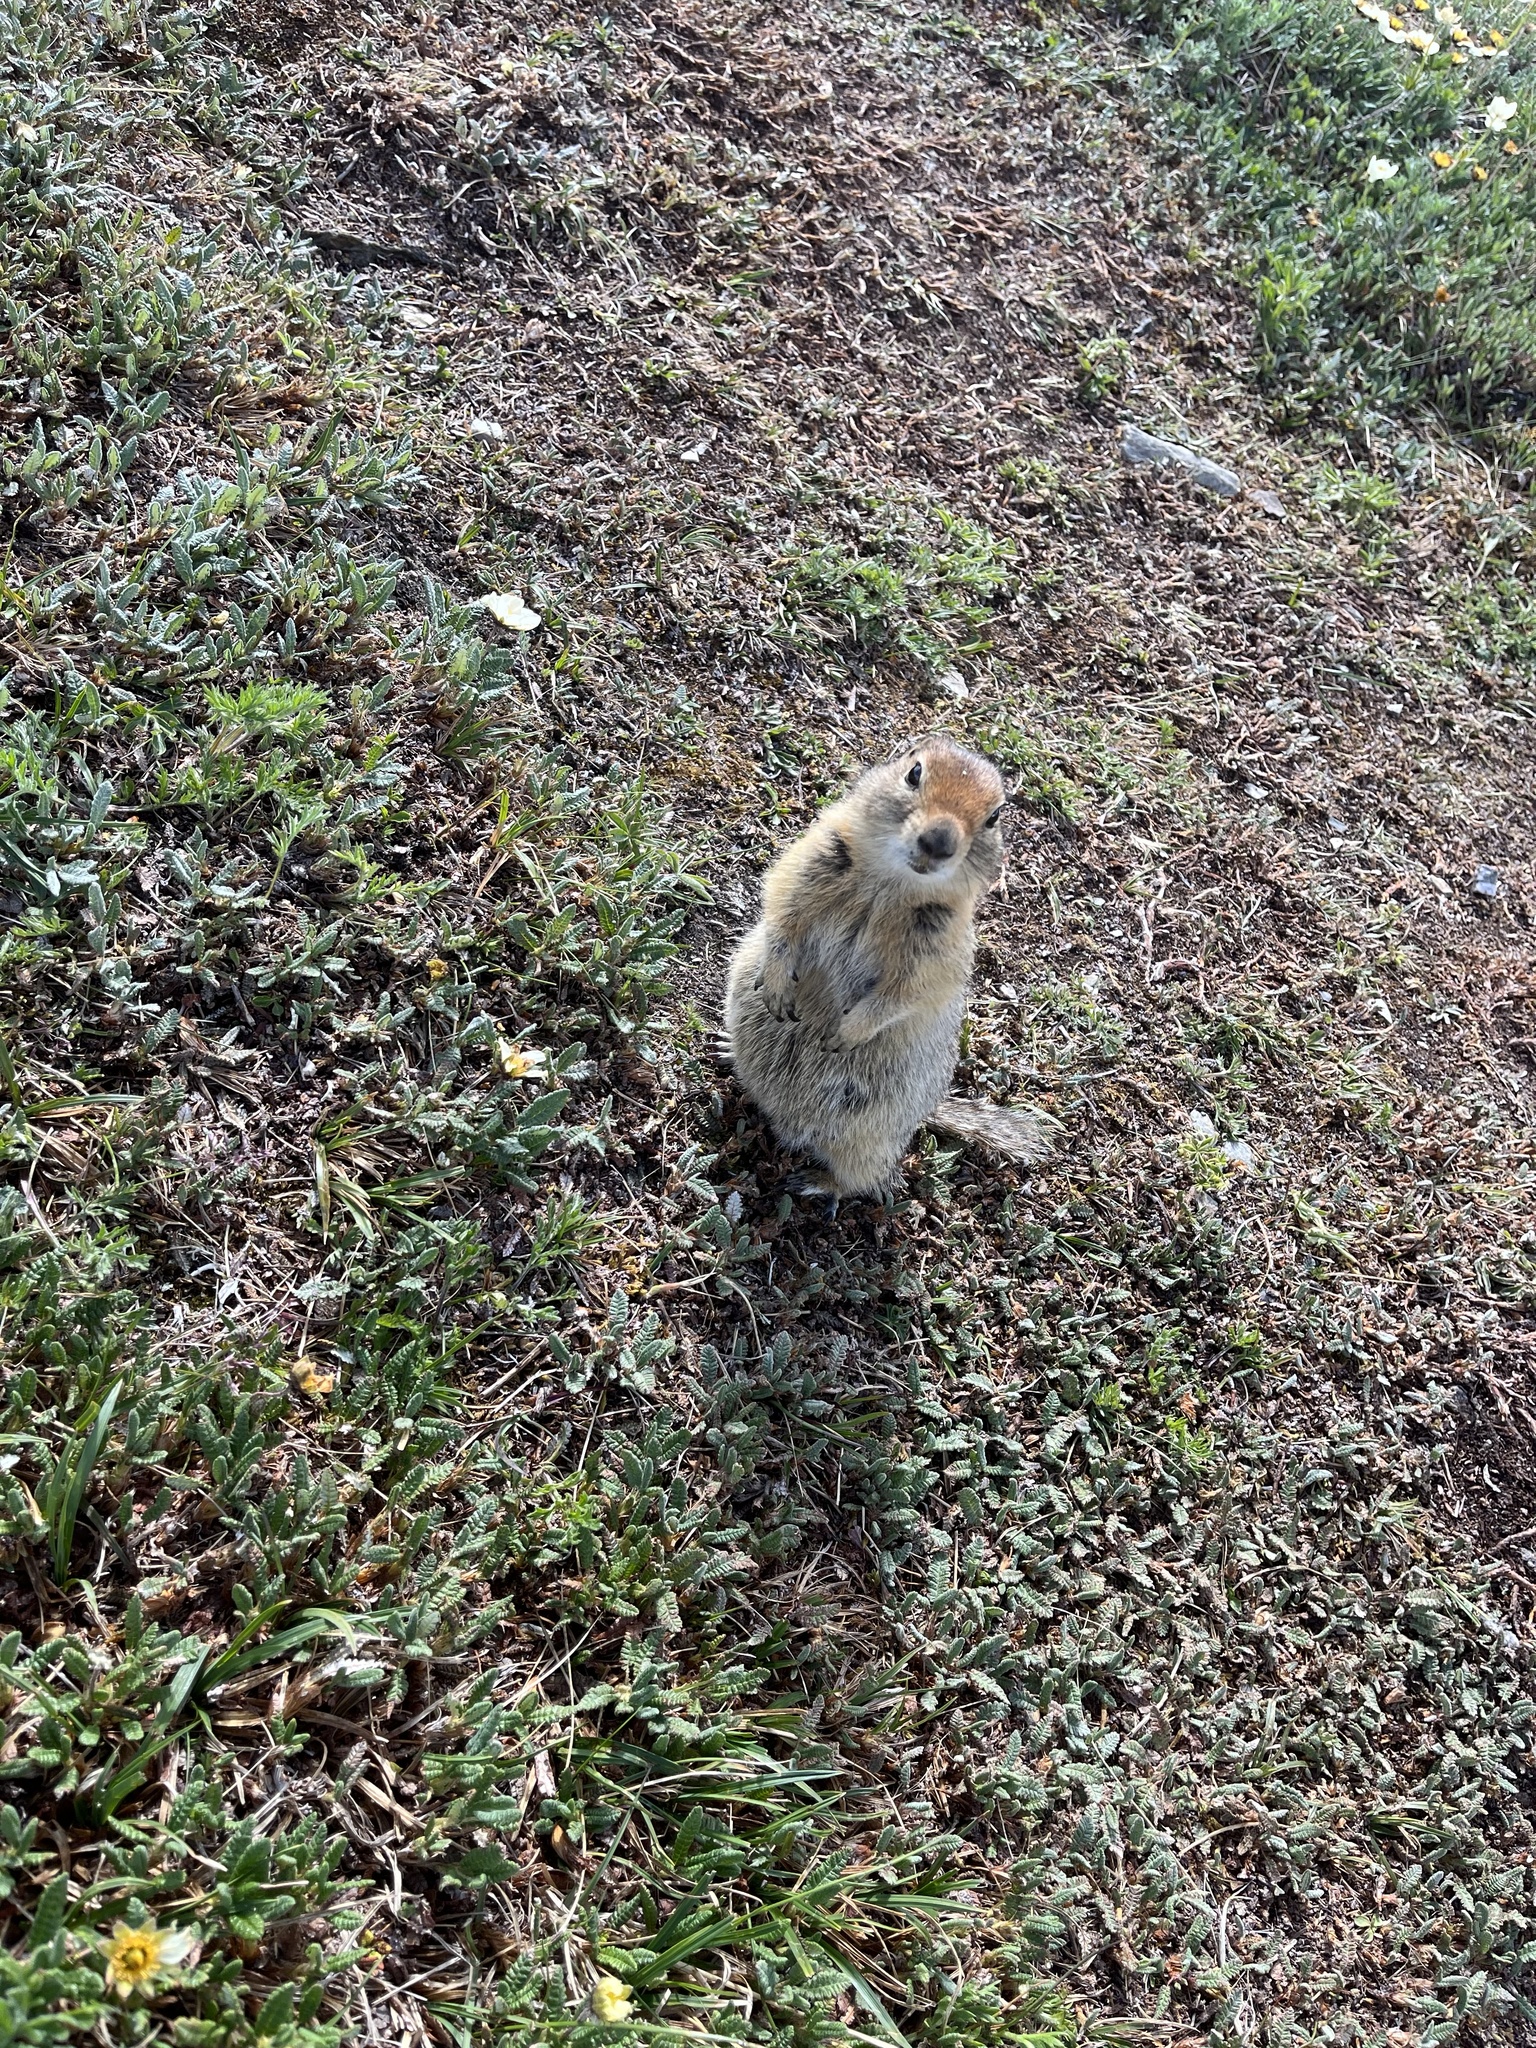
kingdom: Animalia
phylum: Chordata
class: Mammalia
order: Rodentia
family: Sciuridae
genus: Urocitellus
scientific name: Urocitellus parryii
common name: Arctic ground squirrel
